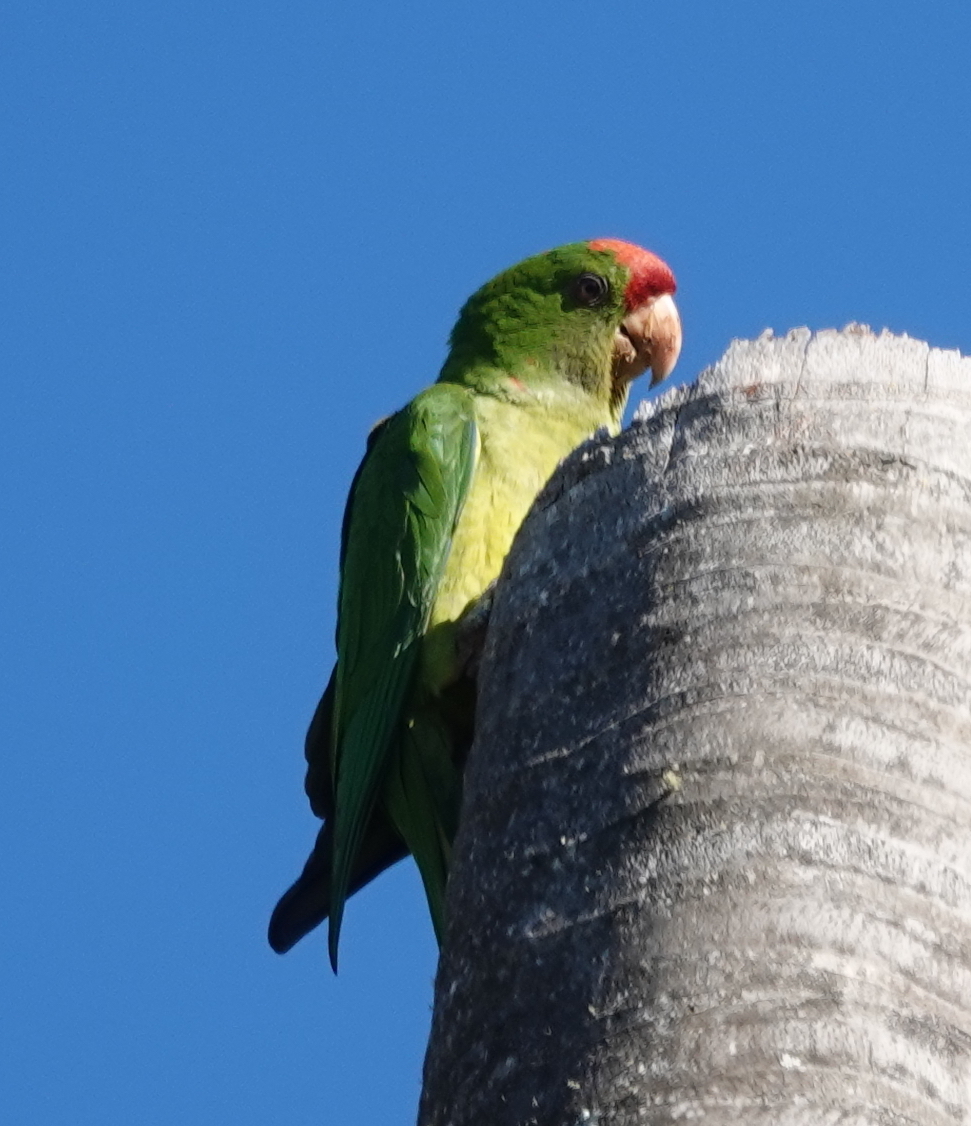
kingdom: Animalia
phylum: Chordata
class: Aves
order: Psittaciformes
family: Psittacidae
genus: Aratinga
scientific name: Aratinga wagleri
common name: Scarlet-fronted parakeet
